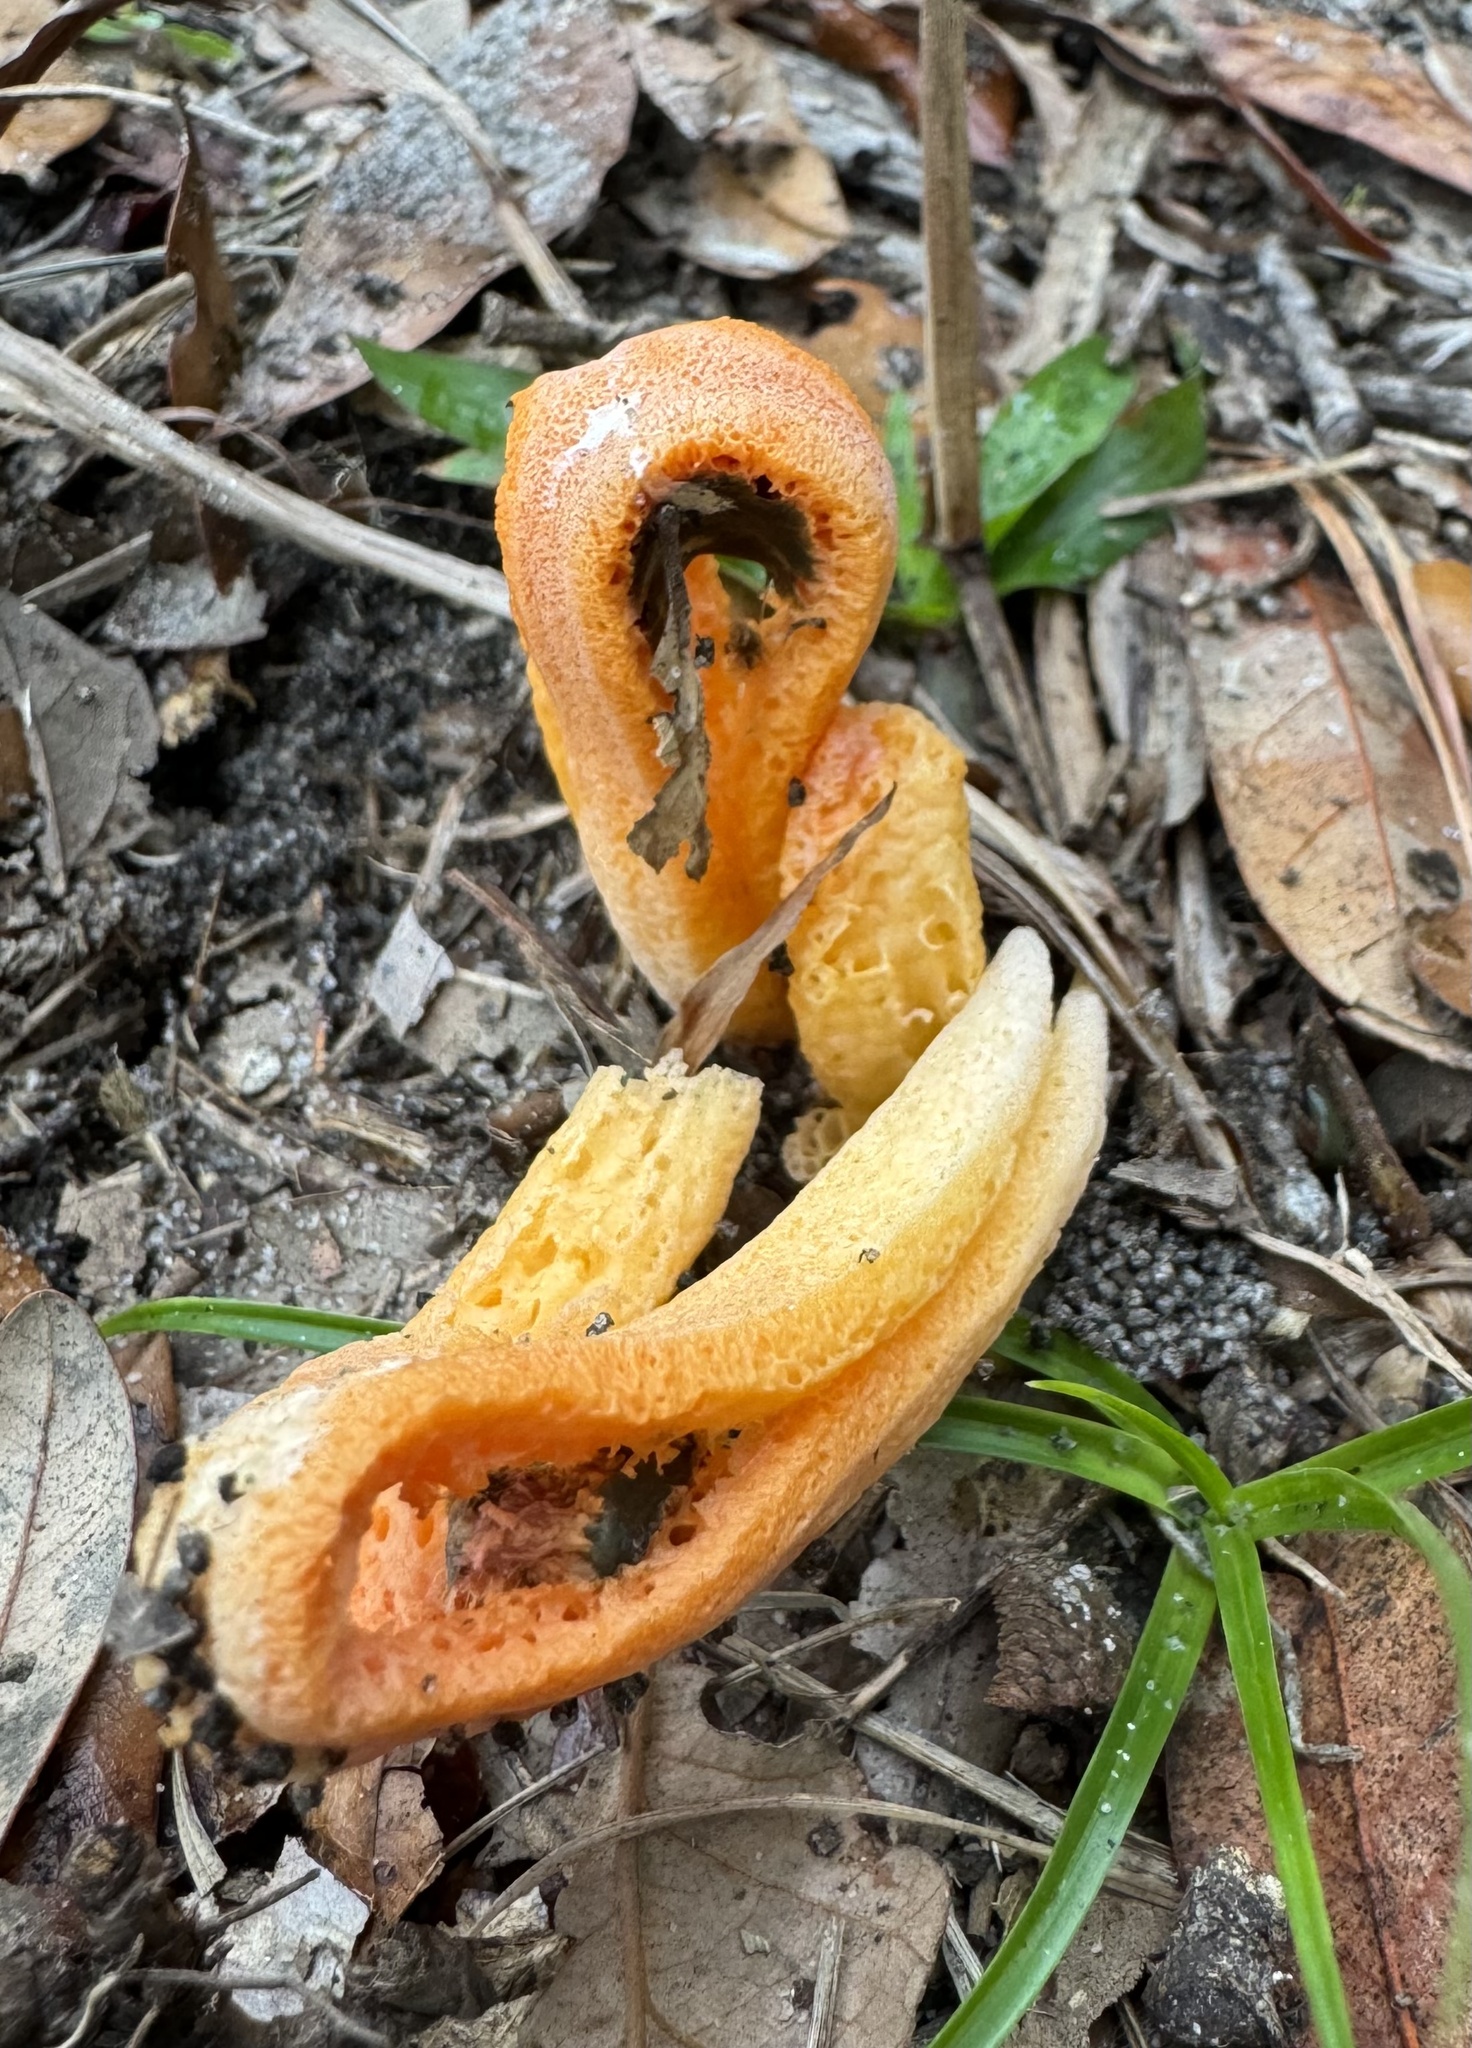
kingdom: Fungi
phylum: Basidiomycota
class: Agaricomycetes
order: Phallales
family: Phallaceae
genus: Clathrus
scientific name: Clathrus columnatus
